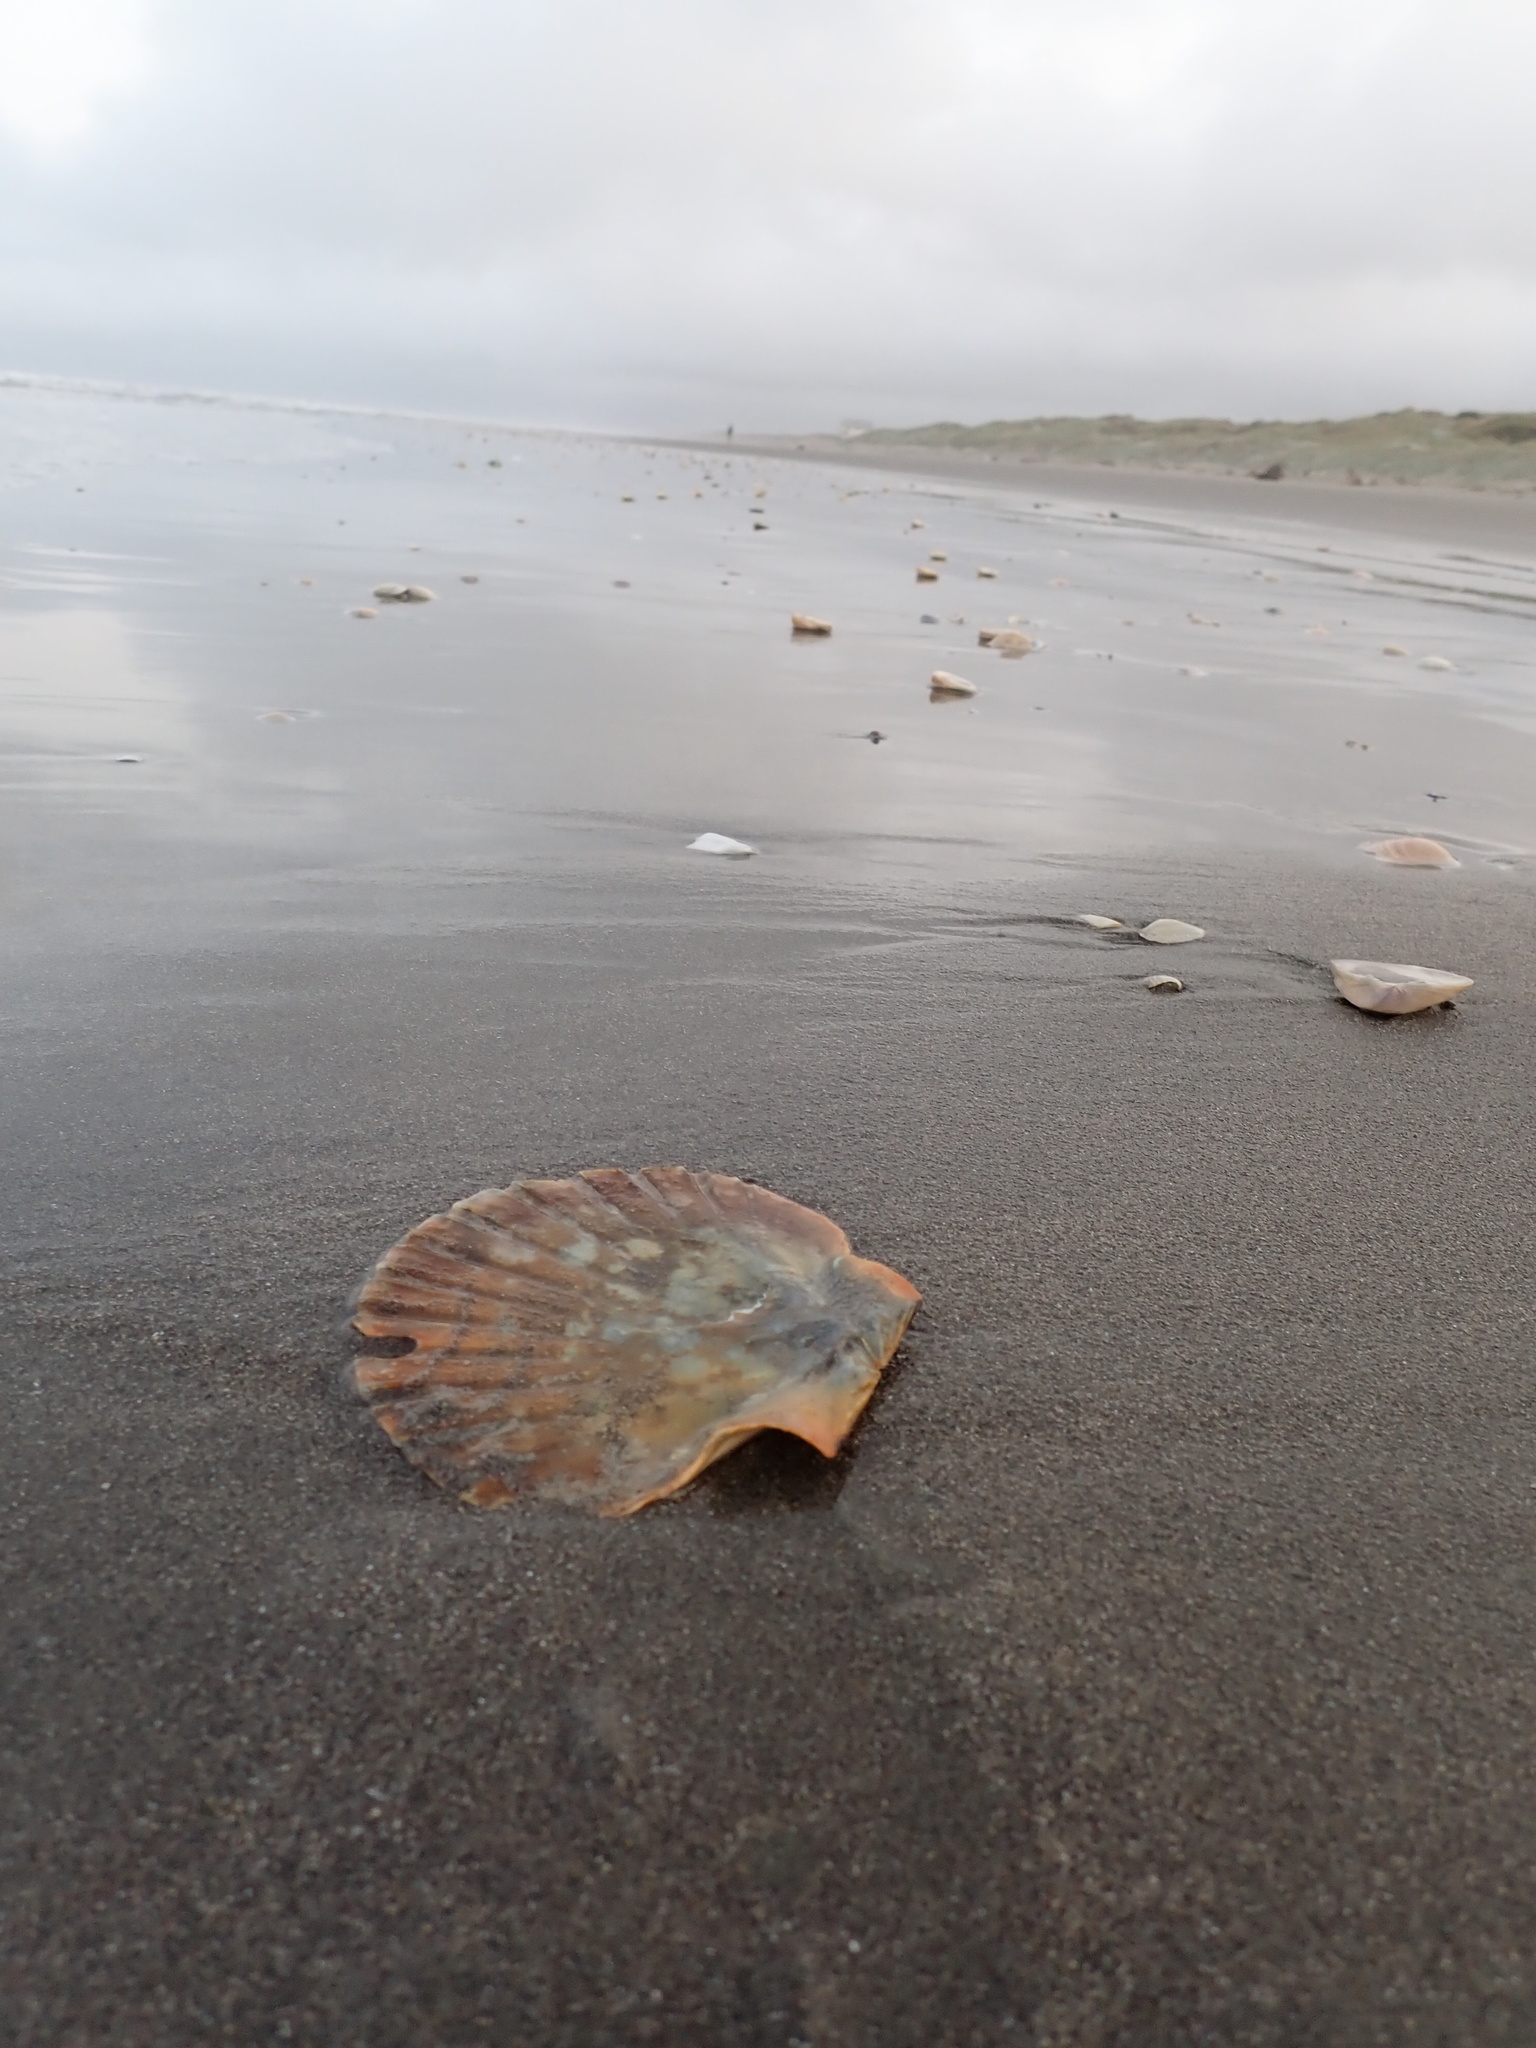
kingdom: Animalia
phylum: Mollusca
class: Bivalvia
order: Pectinida
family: Pectinidae
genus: Pecten
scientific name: Pecten novaezelandiae
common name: New zealand scallop
